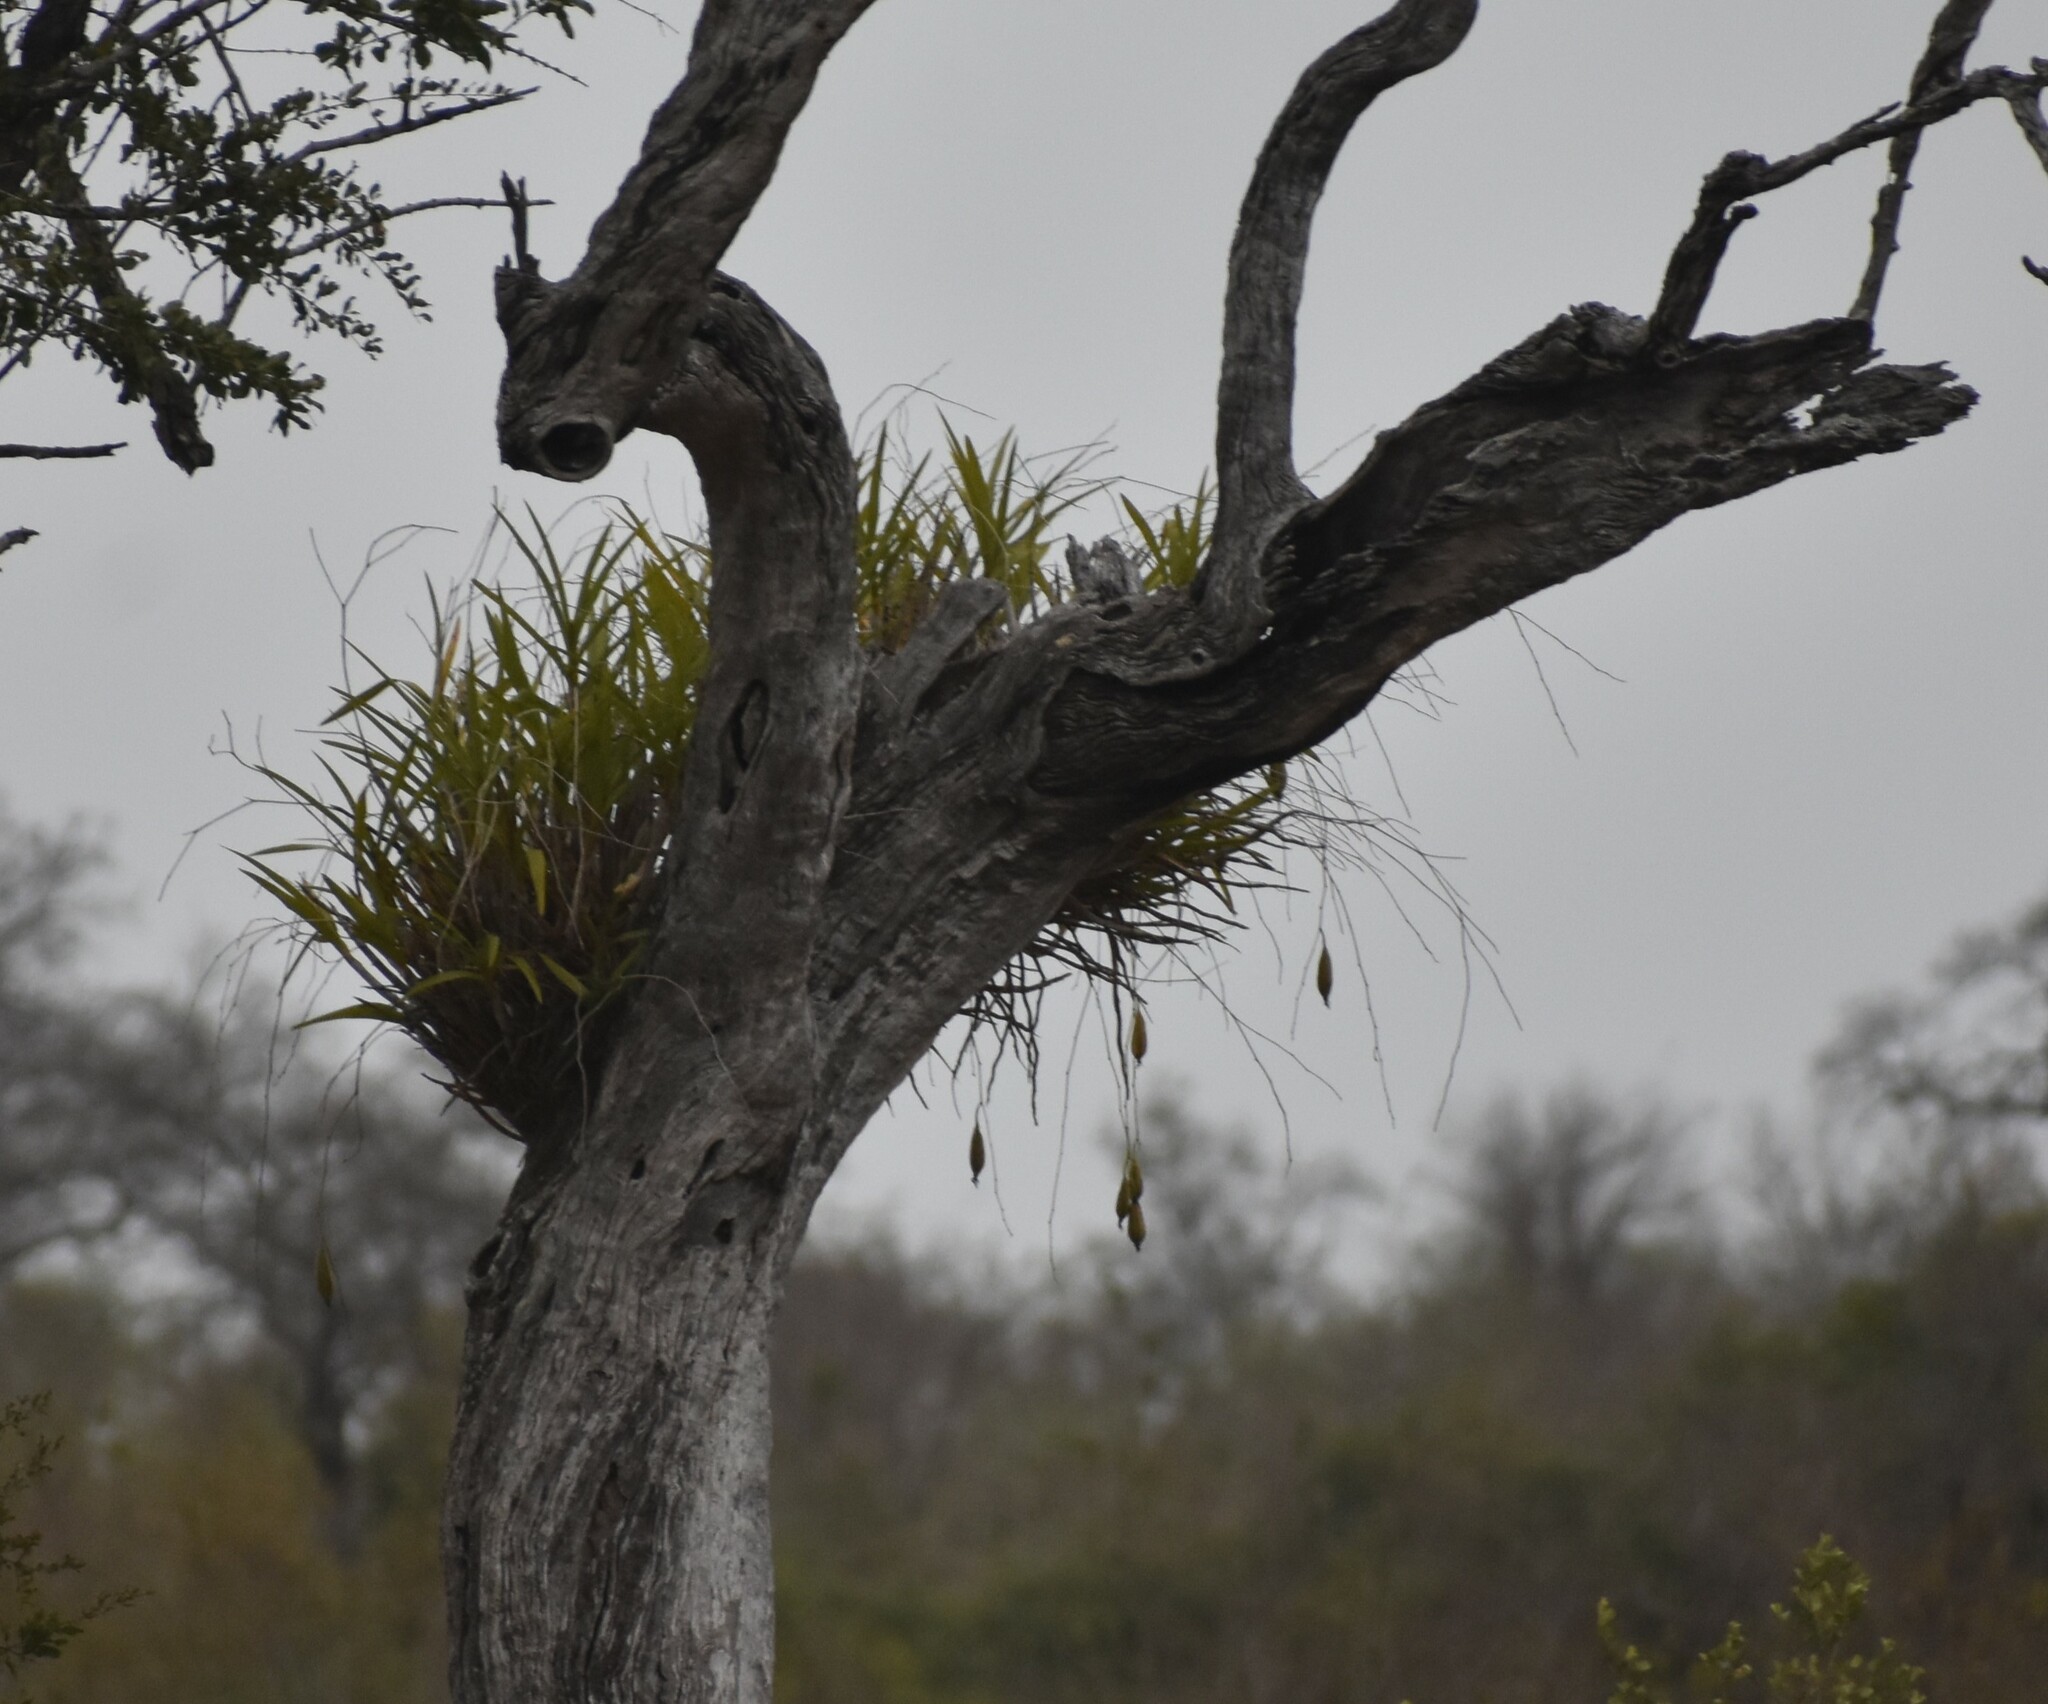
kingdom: Plantae
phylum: Tracheophyta
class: Liliopsida
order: Asparagales
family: Orchidaceae
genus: Ansellia
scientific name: Ansellia africana
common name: African ansellia
